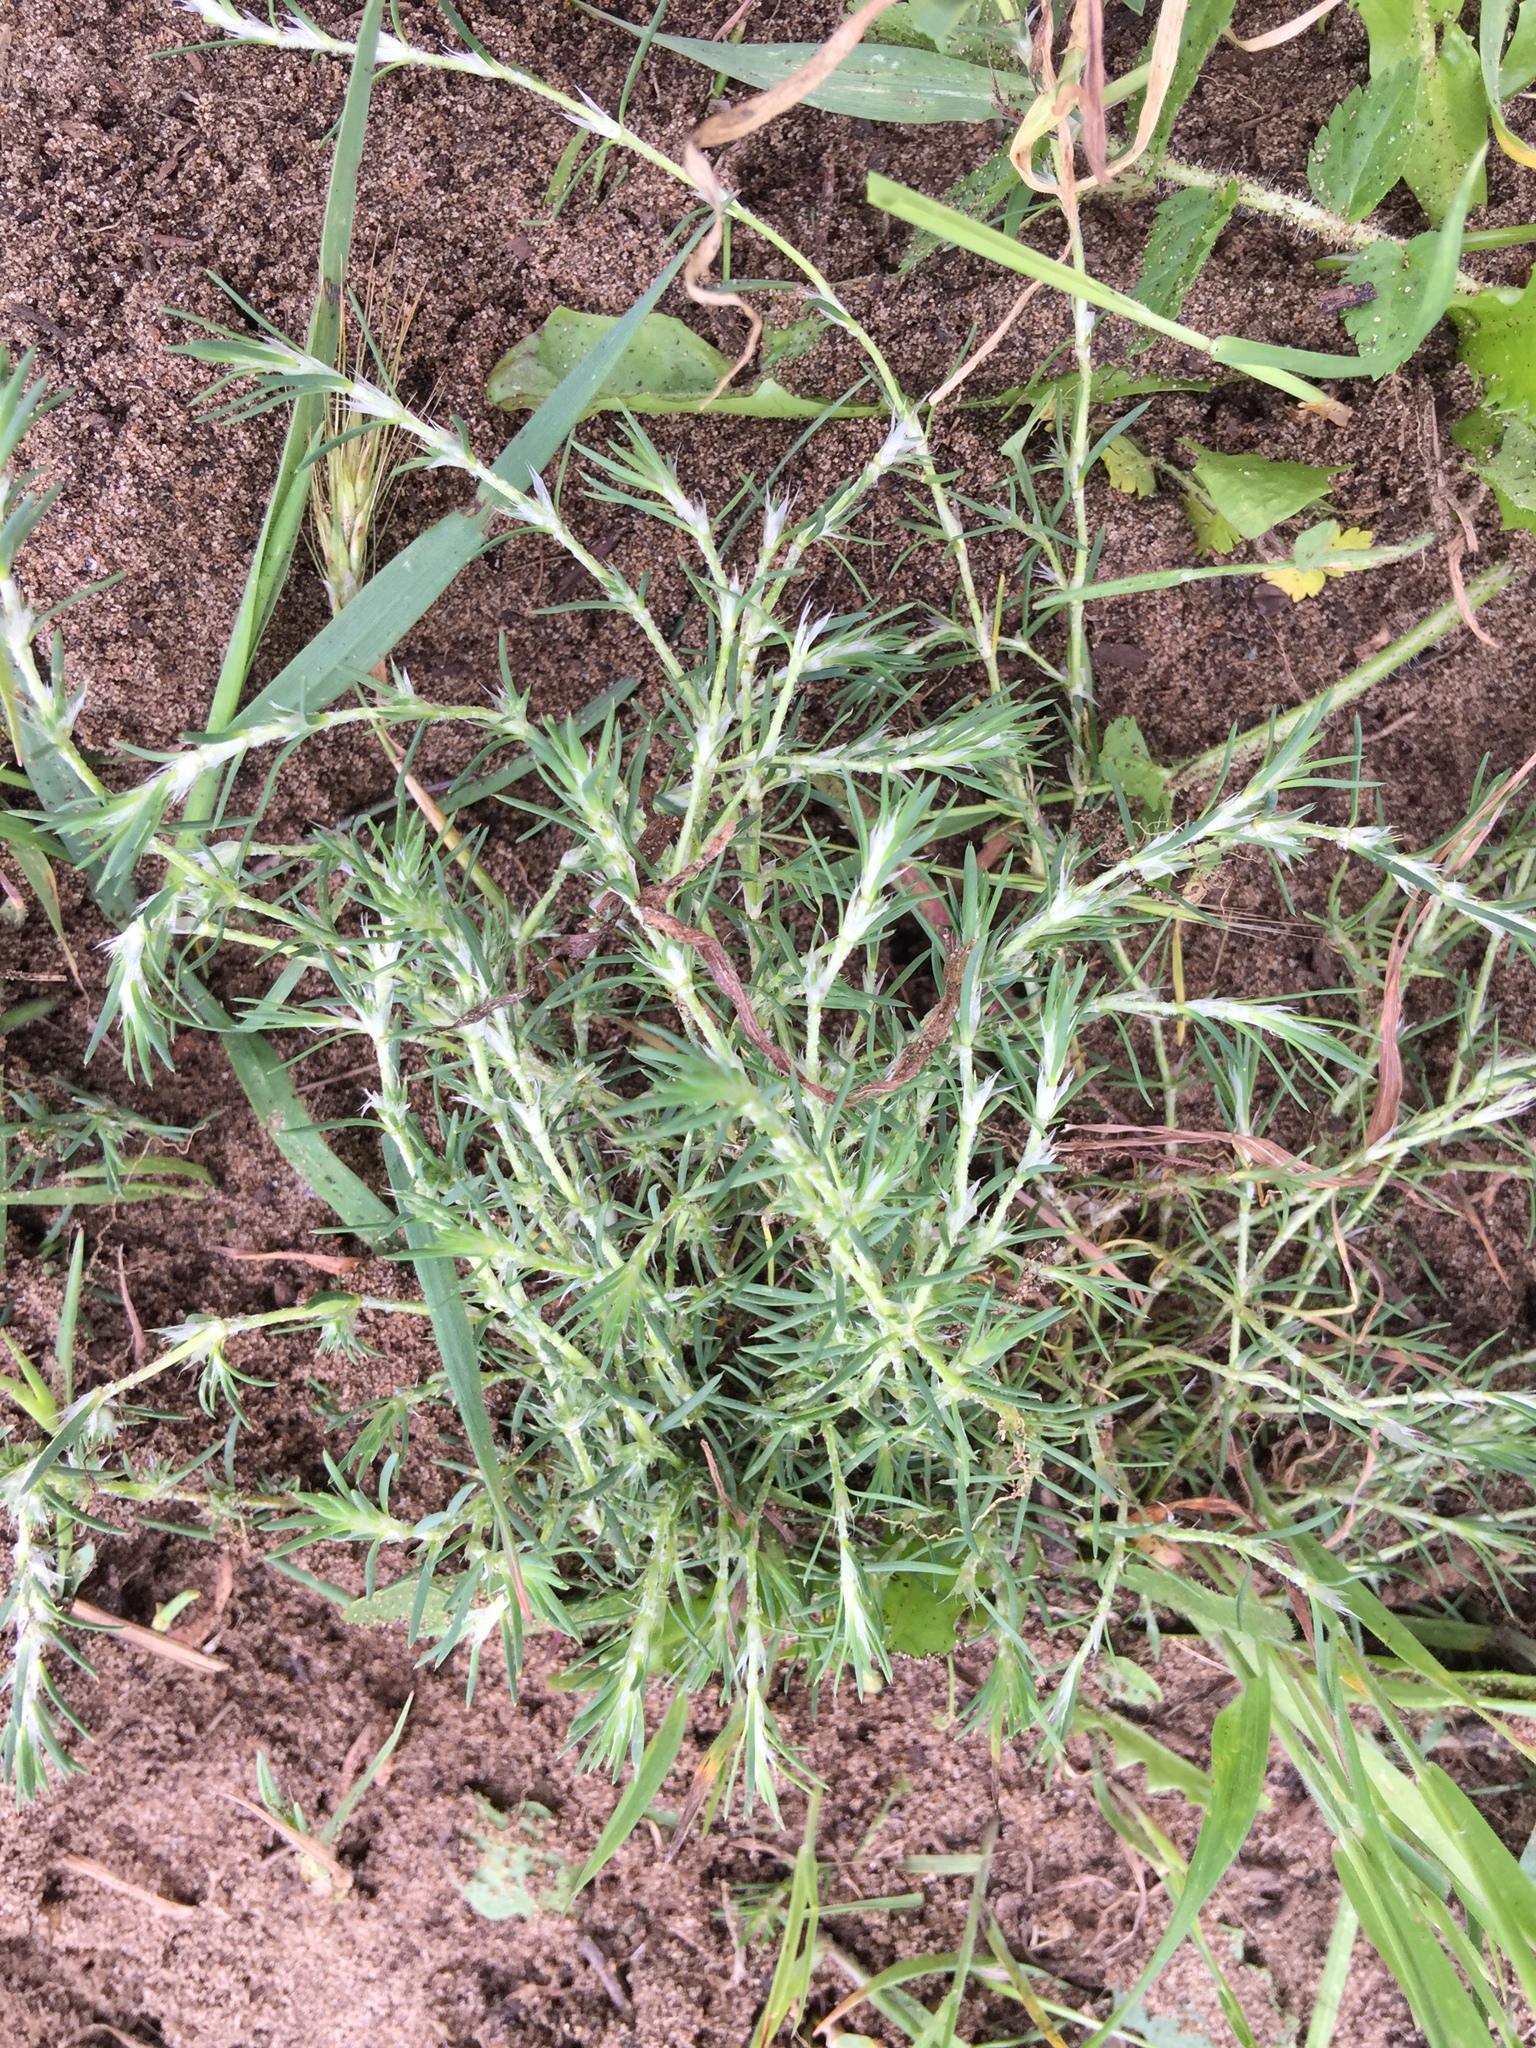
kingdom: Plantae
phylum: Tracheophyta
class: Magnoliopsida
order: Caryophyllales
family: Caryophyllaceae
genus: Cardionema
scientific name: Cardionema ramosissima
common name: Sandcarpet
